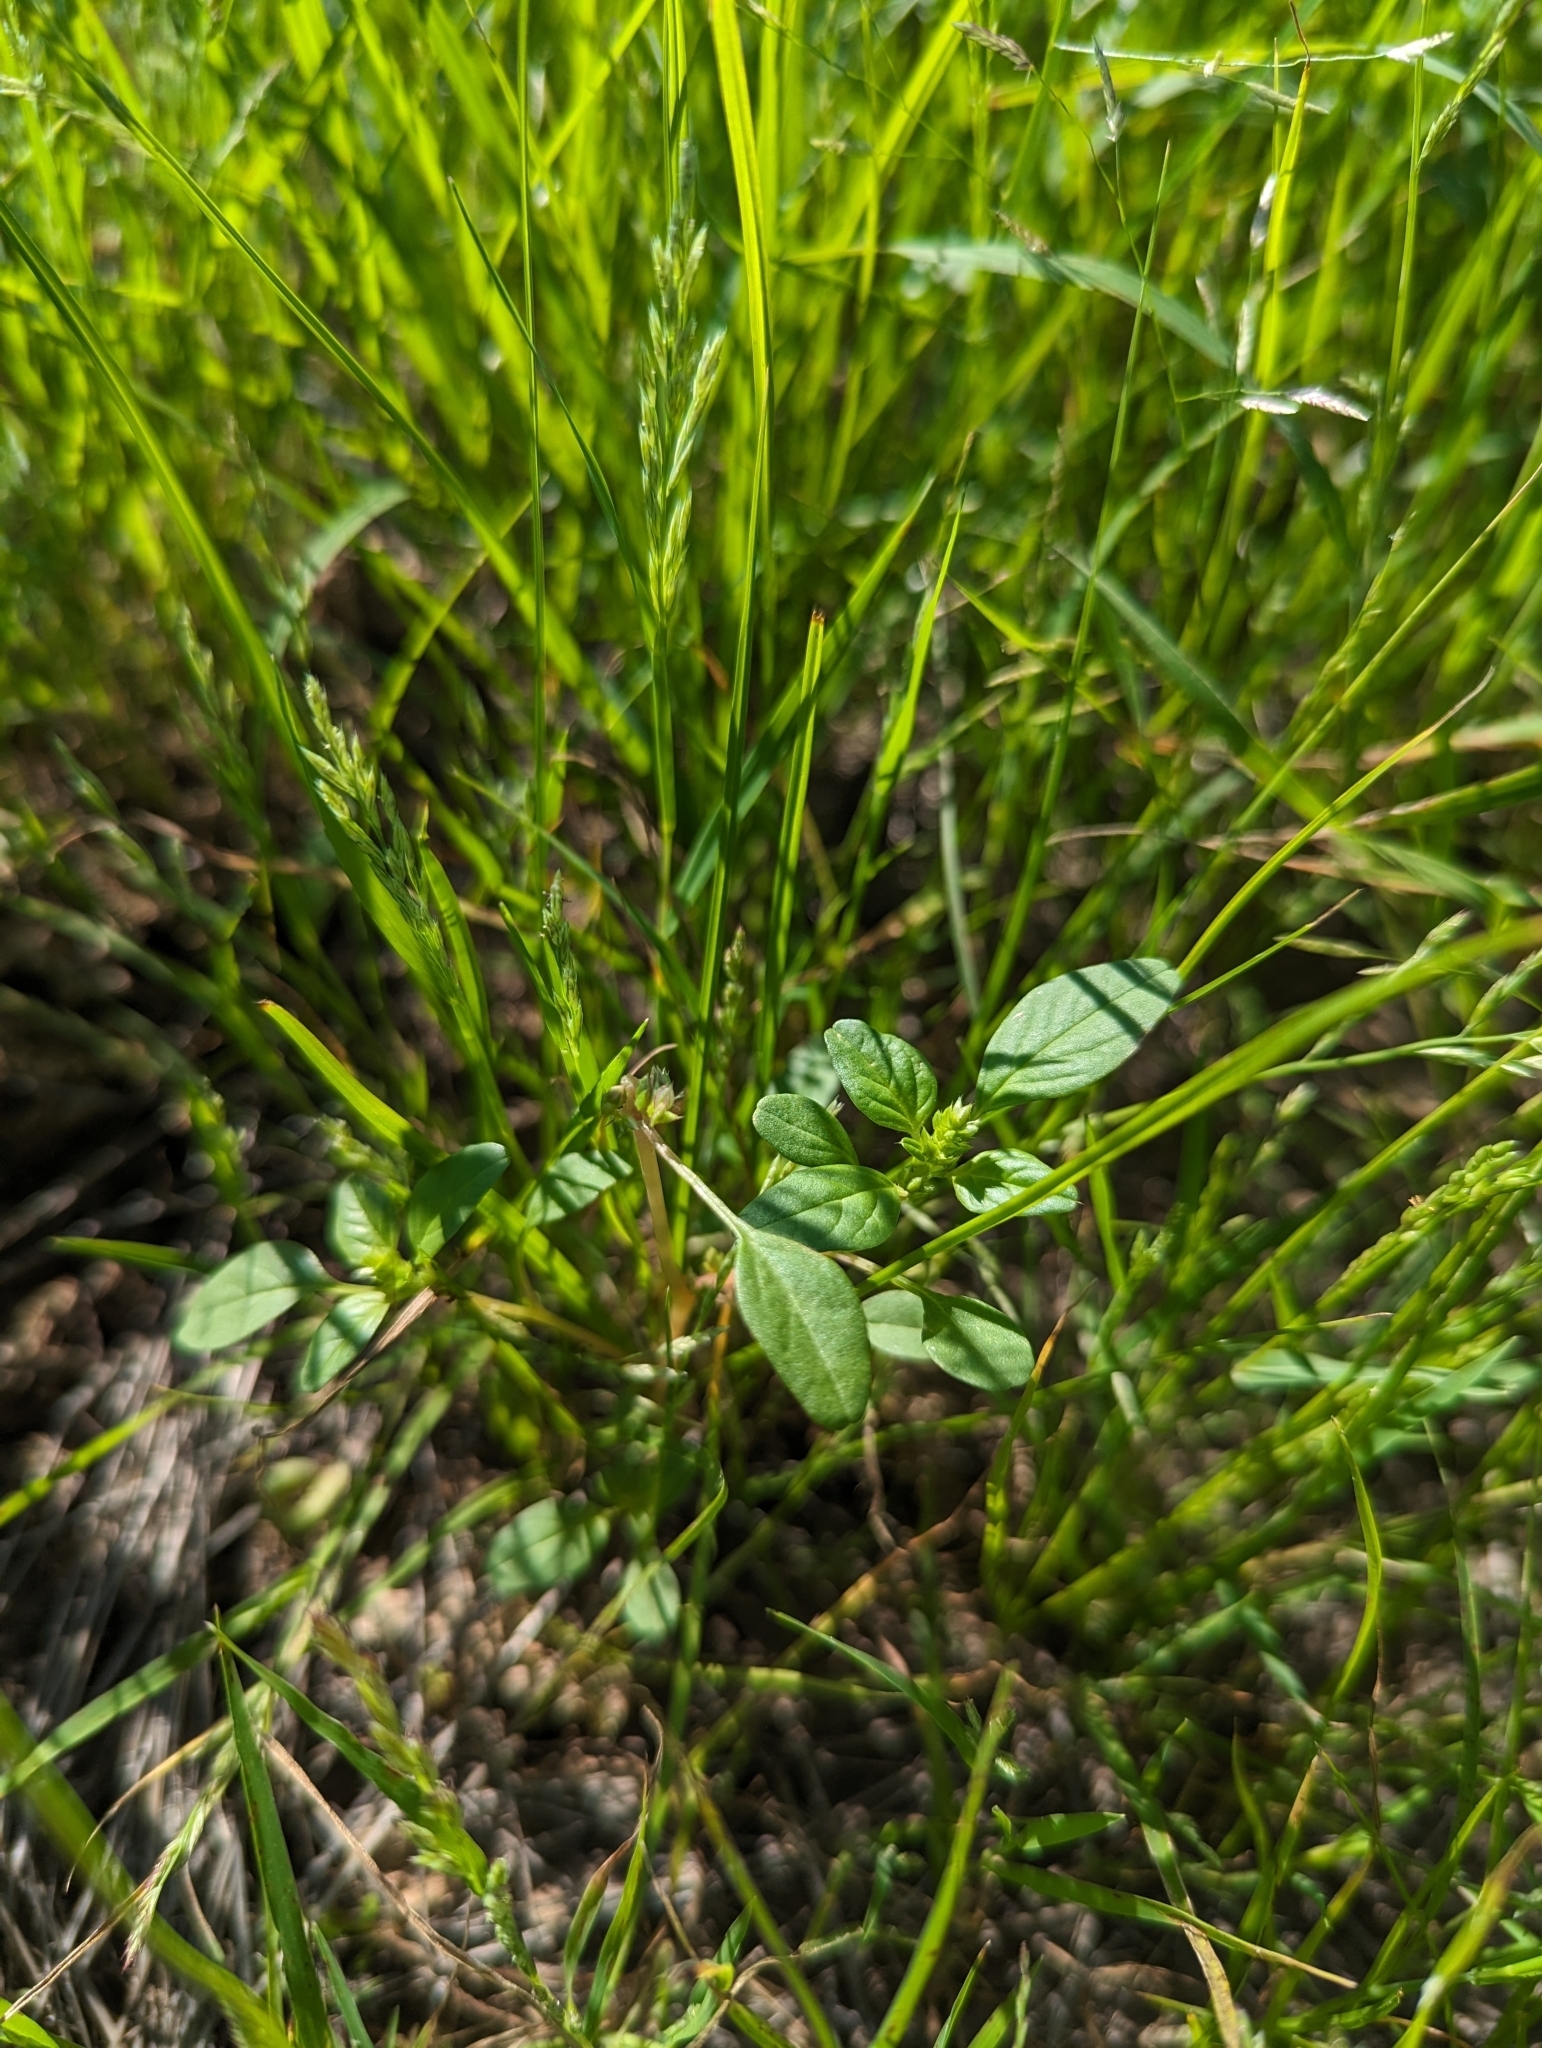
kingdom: Plantae
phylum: Tracheophyta
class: Magnoliopsida
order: Caryophyllales
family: Amaranthaceae
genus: Amaranthus
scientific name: Amaranthus lepturus
